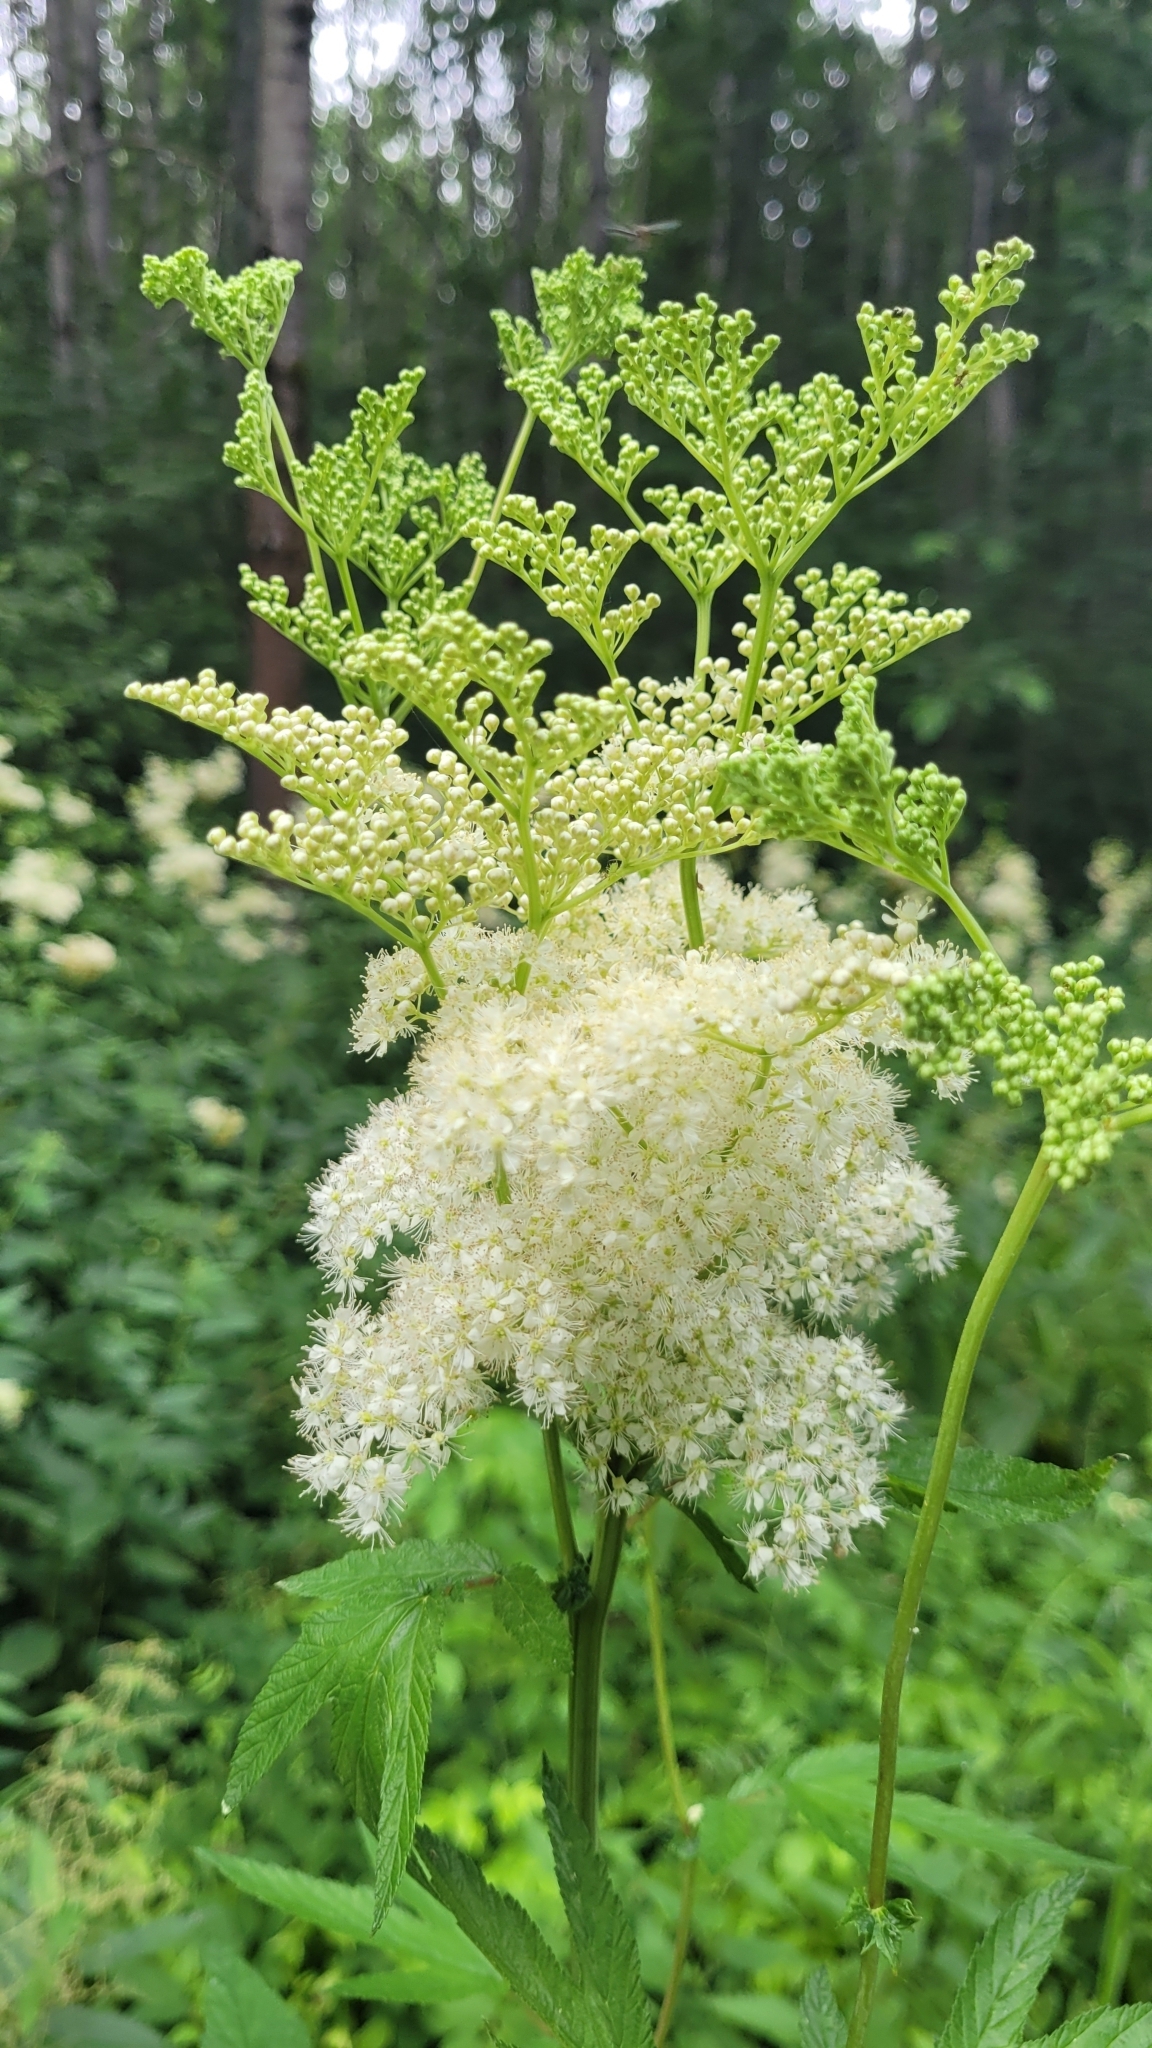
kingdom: Plantae
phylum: Tracheophyta
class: Magnoliopsida
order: Rosales
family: Rosaceae
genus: Filipendula
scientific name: Filipendula ulmaria
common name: Meadowsweet
